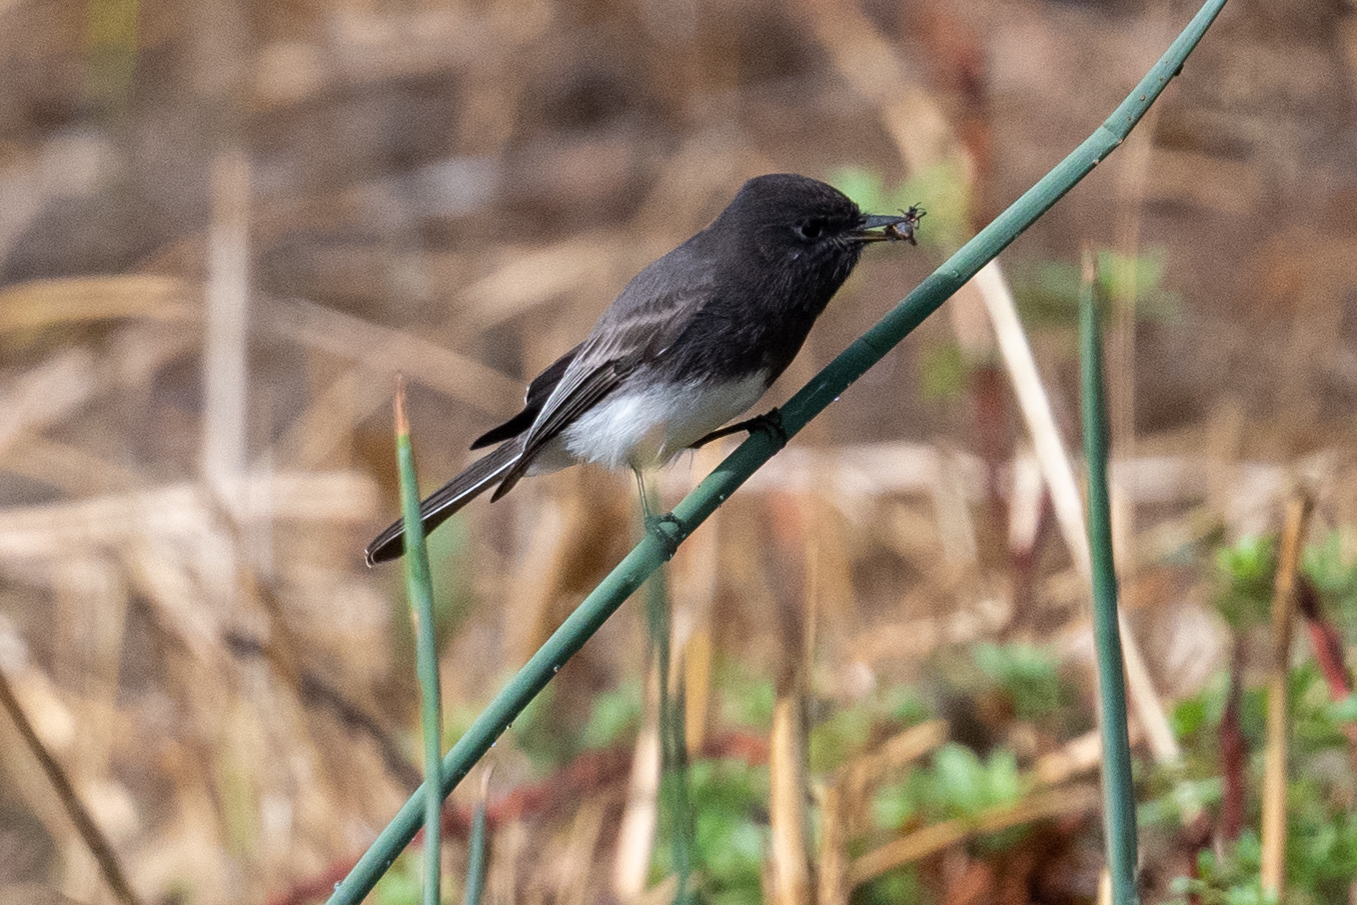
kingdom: Animalia
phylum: Chordata
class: Aves
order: Passeriformes
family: Tyrannidae
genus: Sayornis
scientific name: Sayornis nigricans
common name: Black phoebe
